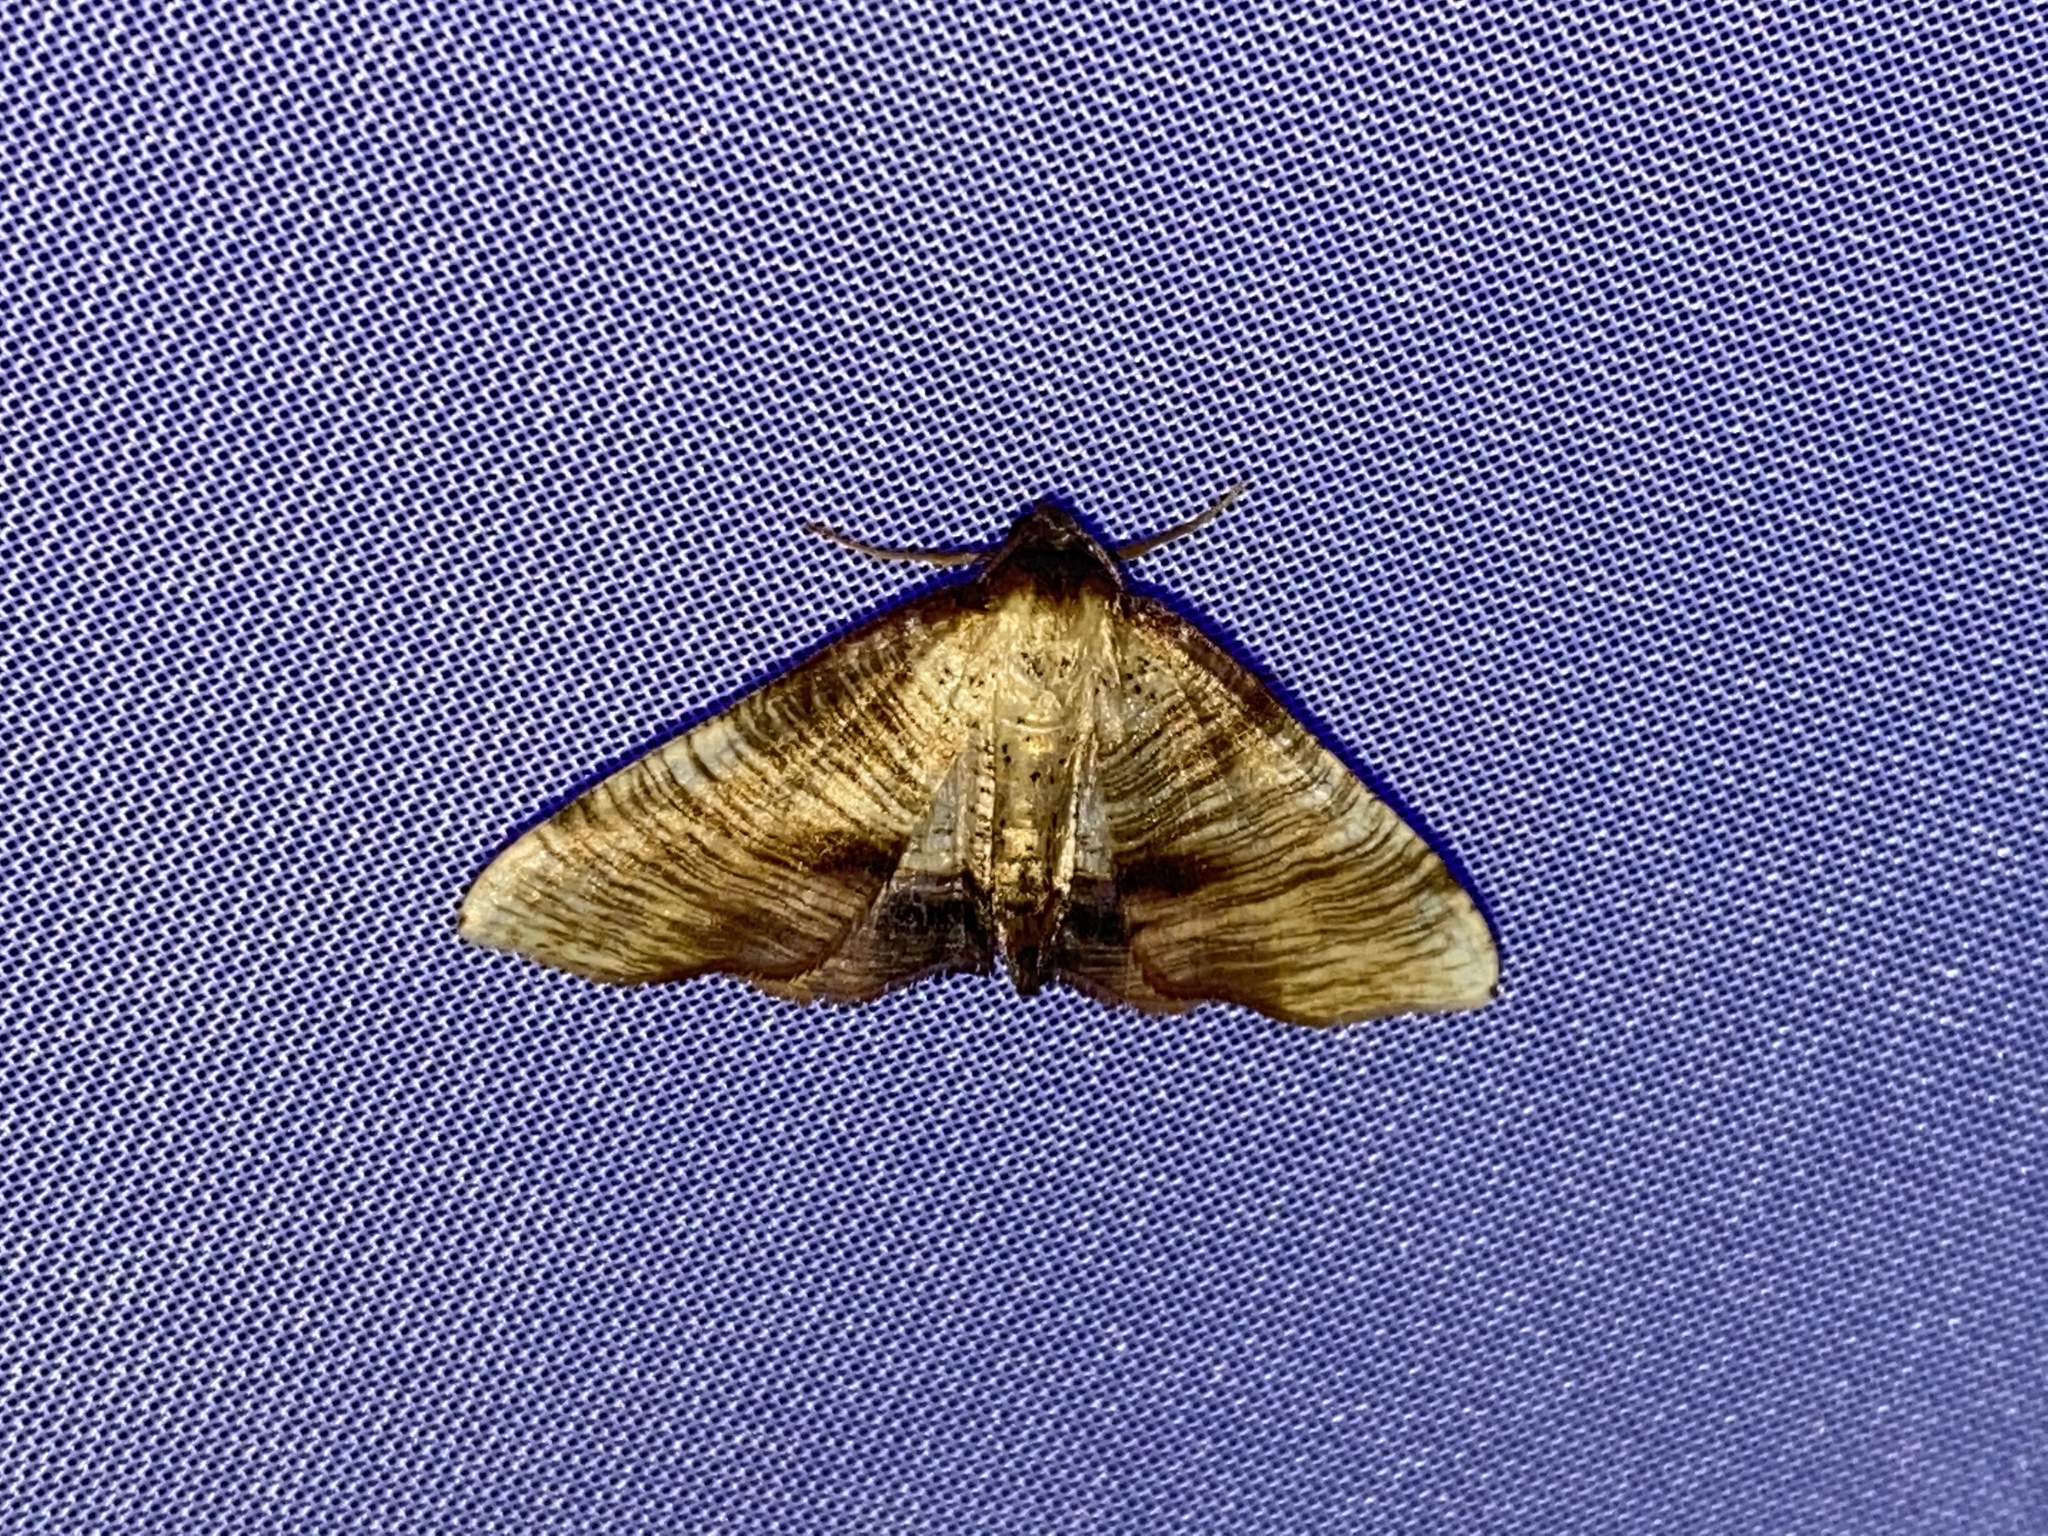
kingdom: Animalia
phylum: Arthropoda
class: Insecta
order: Lepidoptera
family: Geometridae
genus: Plagodis
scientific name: Plagodis dolabraria
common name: Scorched wing
